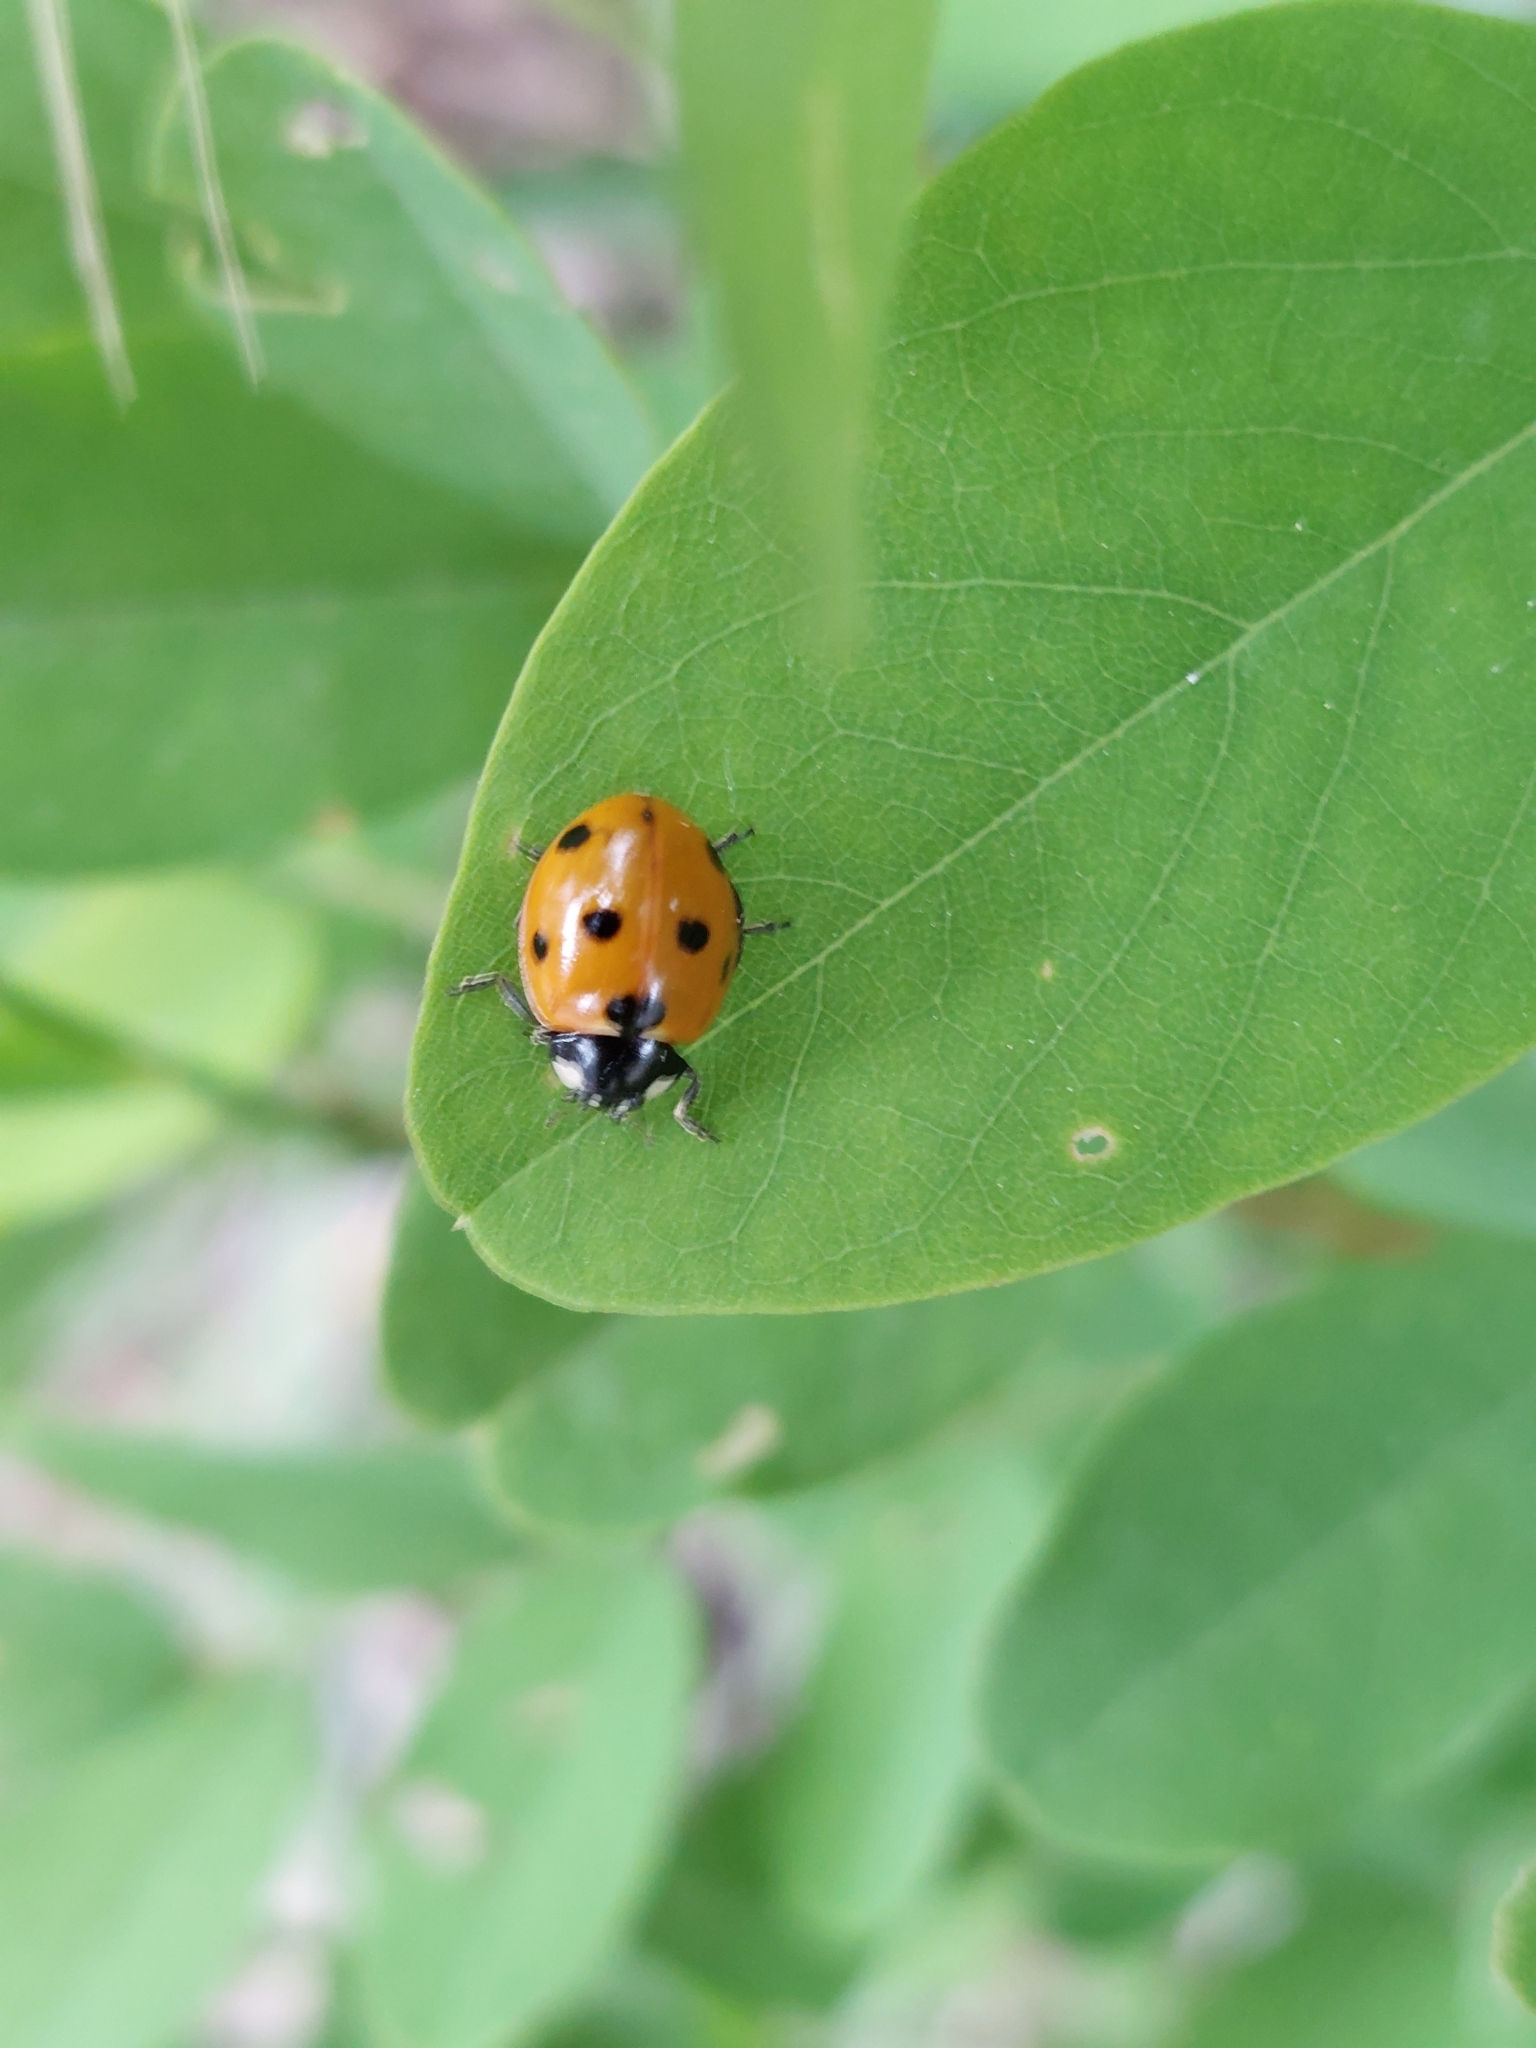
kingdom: Animalia
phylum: Arthropoda
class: Insecta
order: Coleoptera
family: Coccinellidae
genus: Coccinella
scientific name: Coccinella septempunctata
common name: Sevenspotted lady beetle
